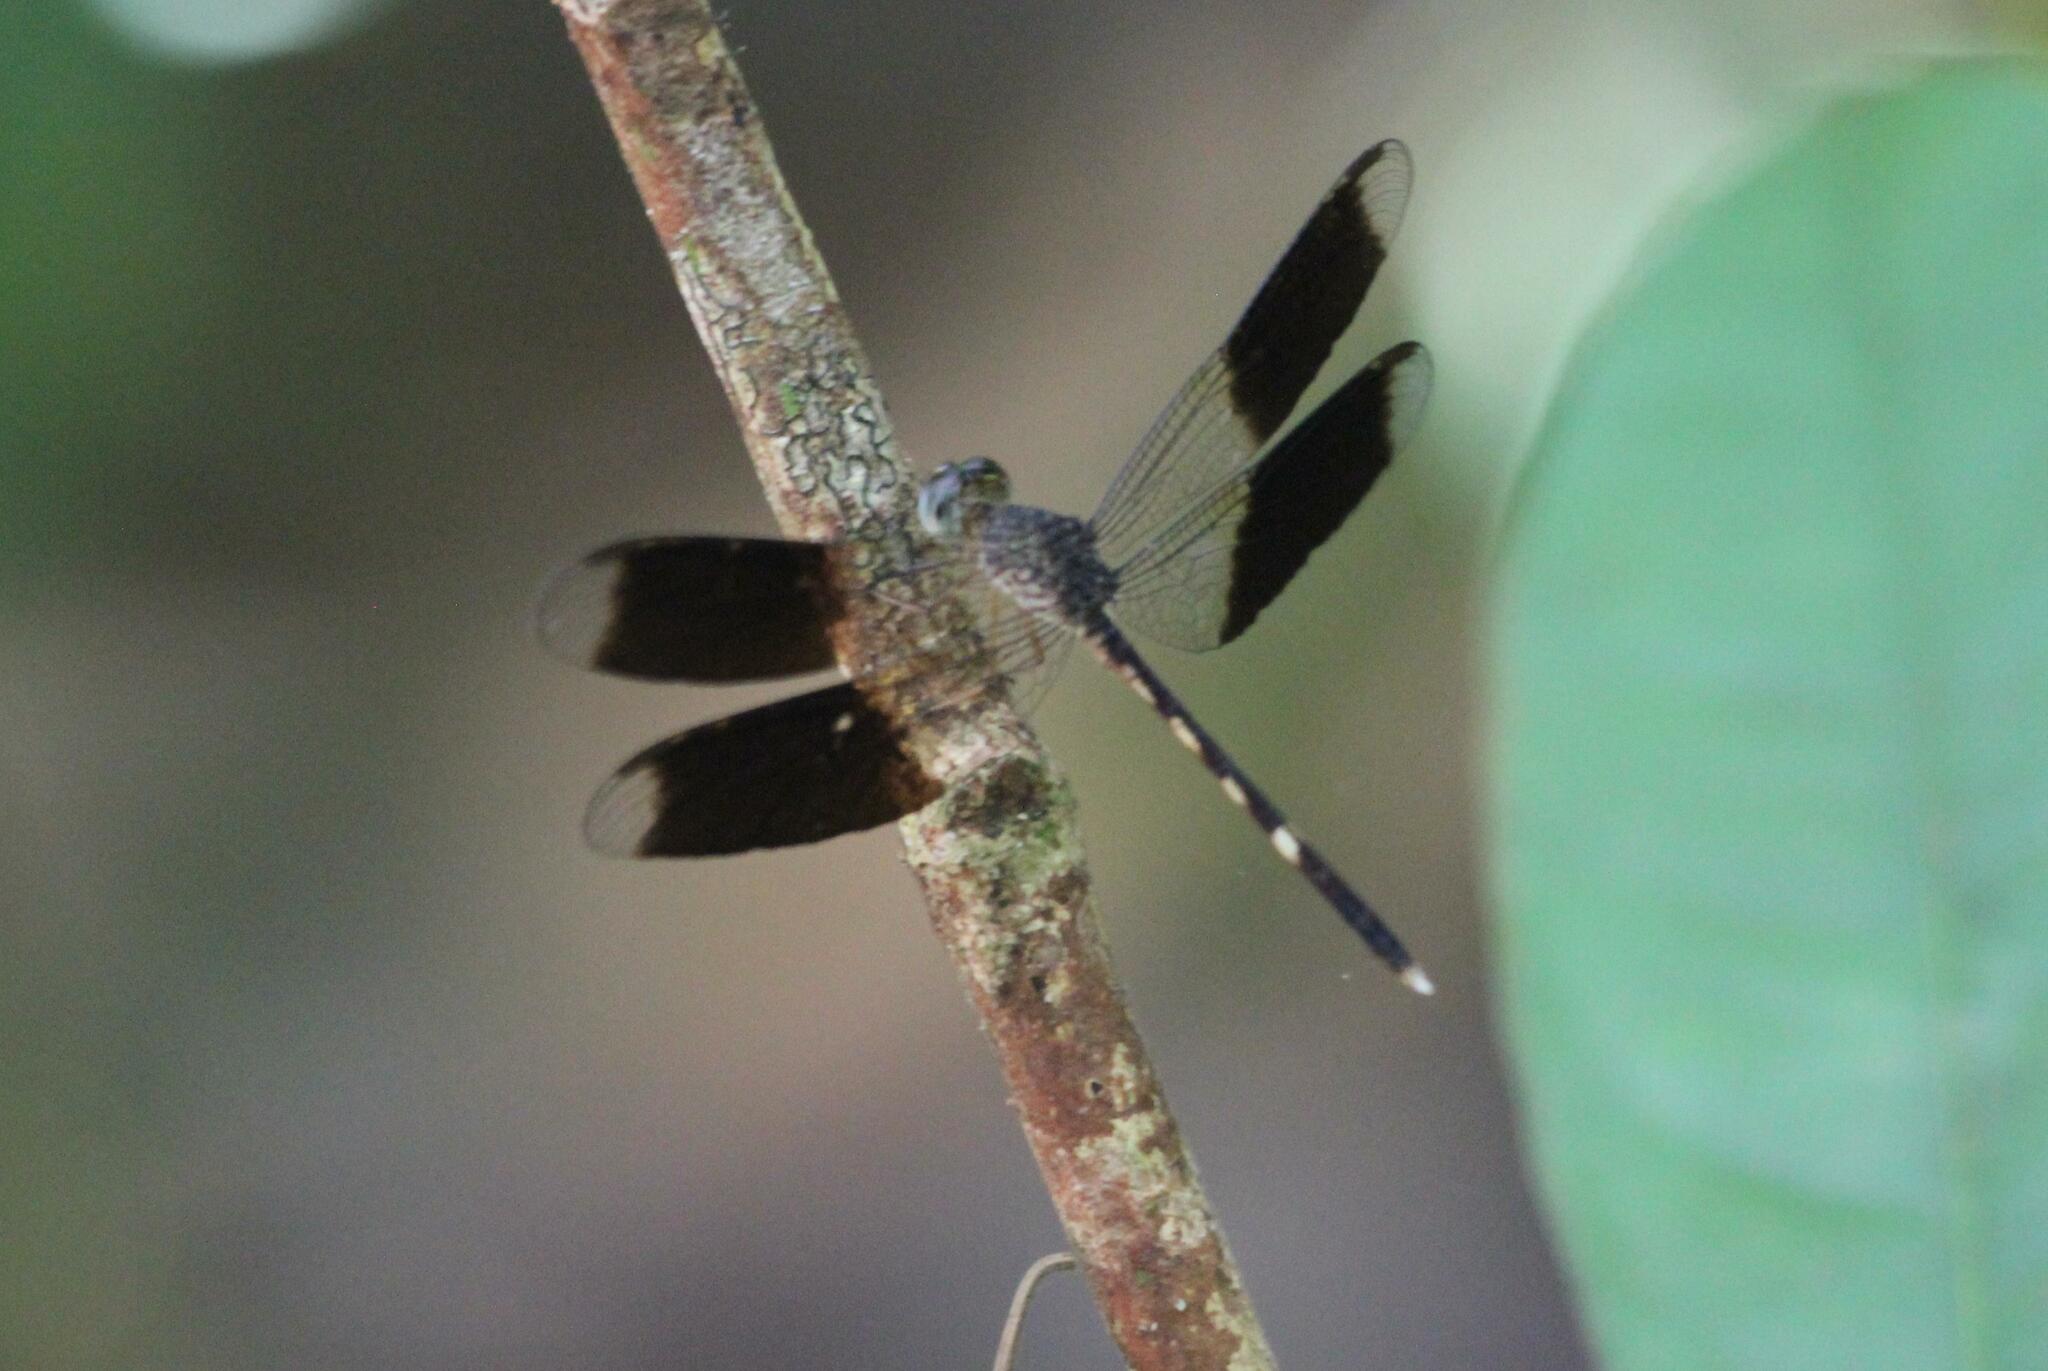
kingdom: Animalia
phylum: Arthropoda
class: Insecta
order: Odonata
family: Libellulidae
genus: Erythrodiplax
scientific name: Erythrodiplax umbrata
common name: Band-winged dragonlet
